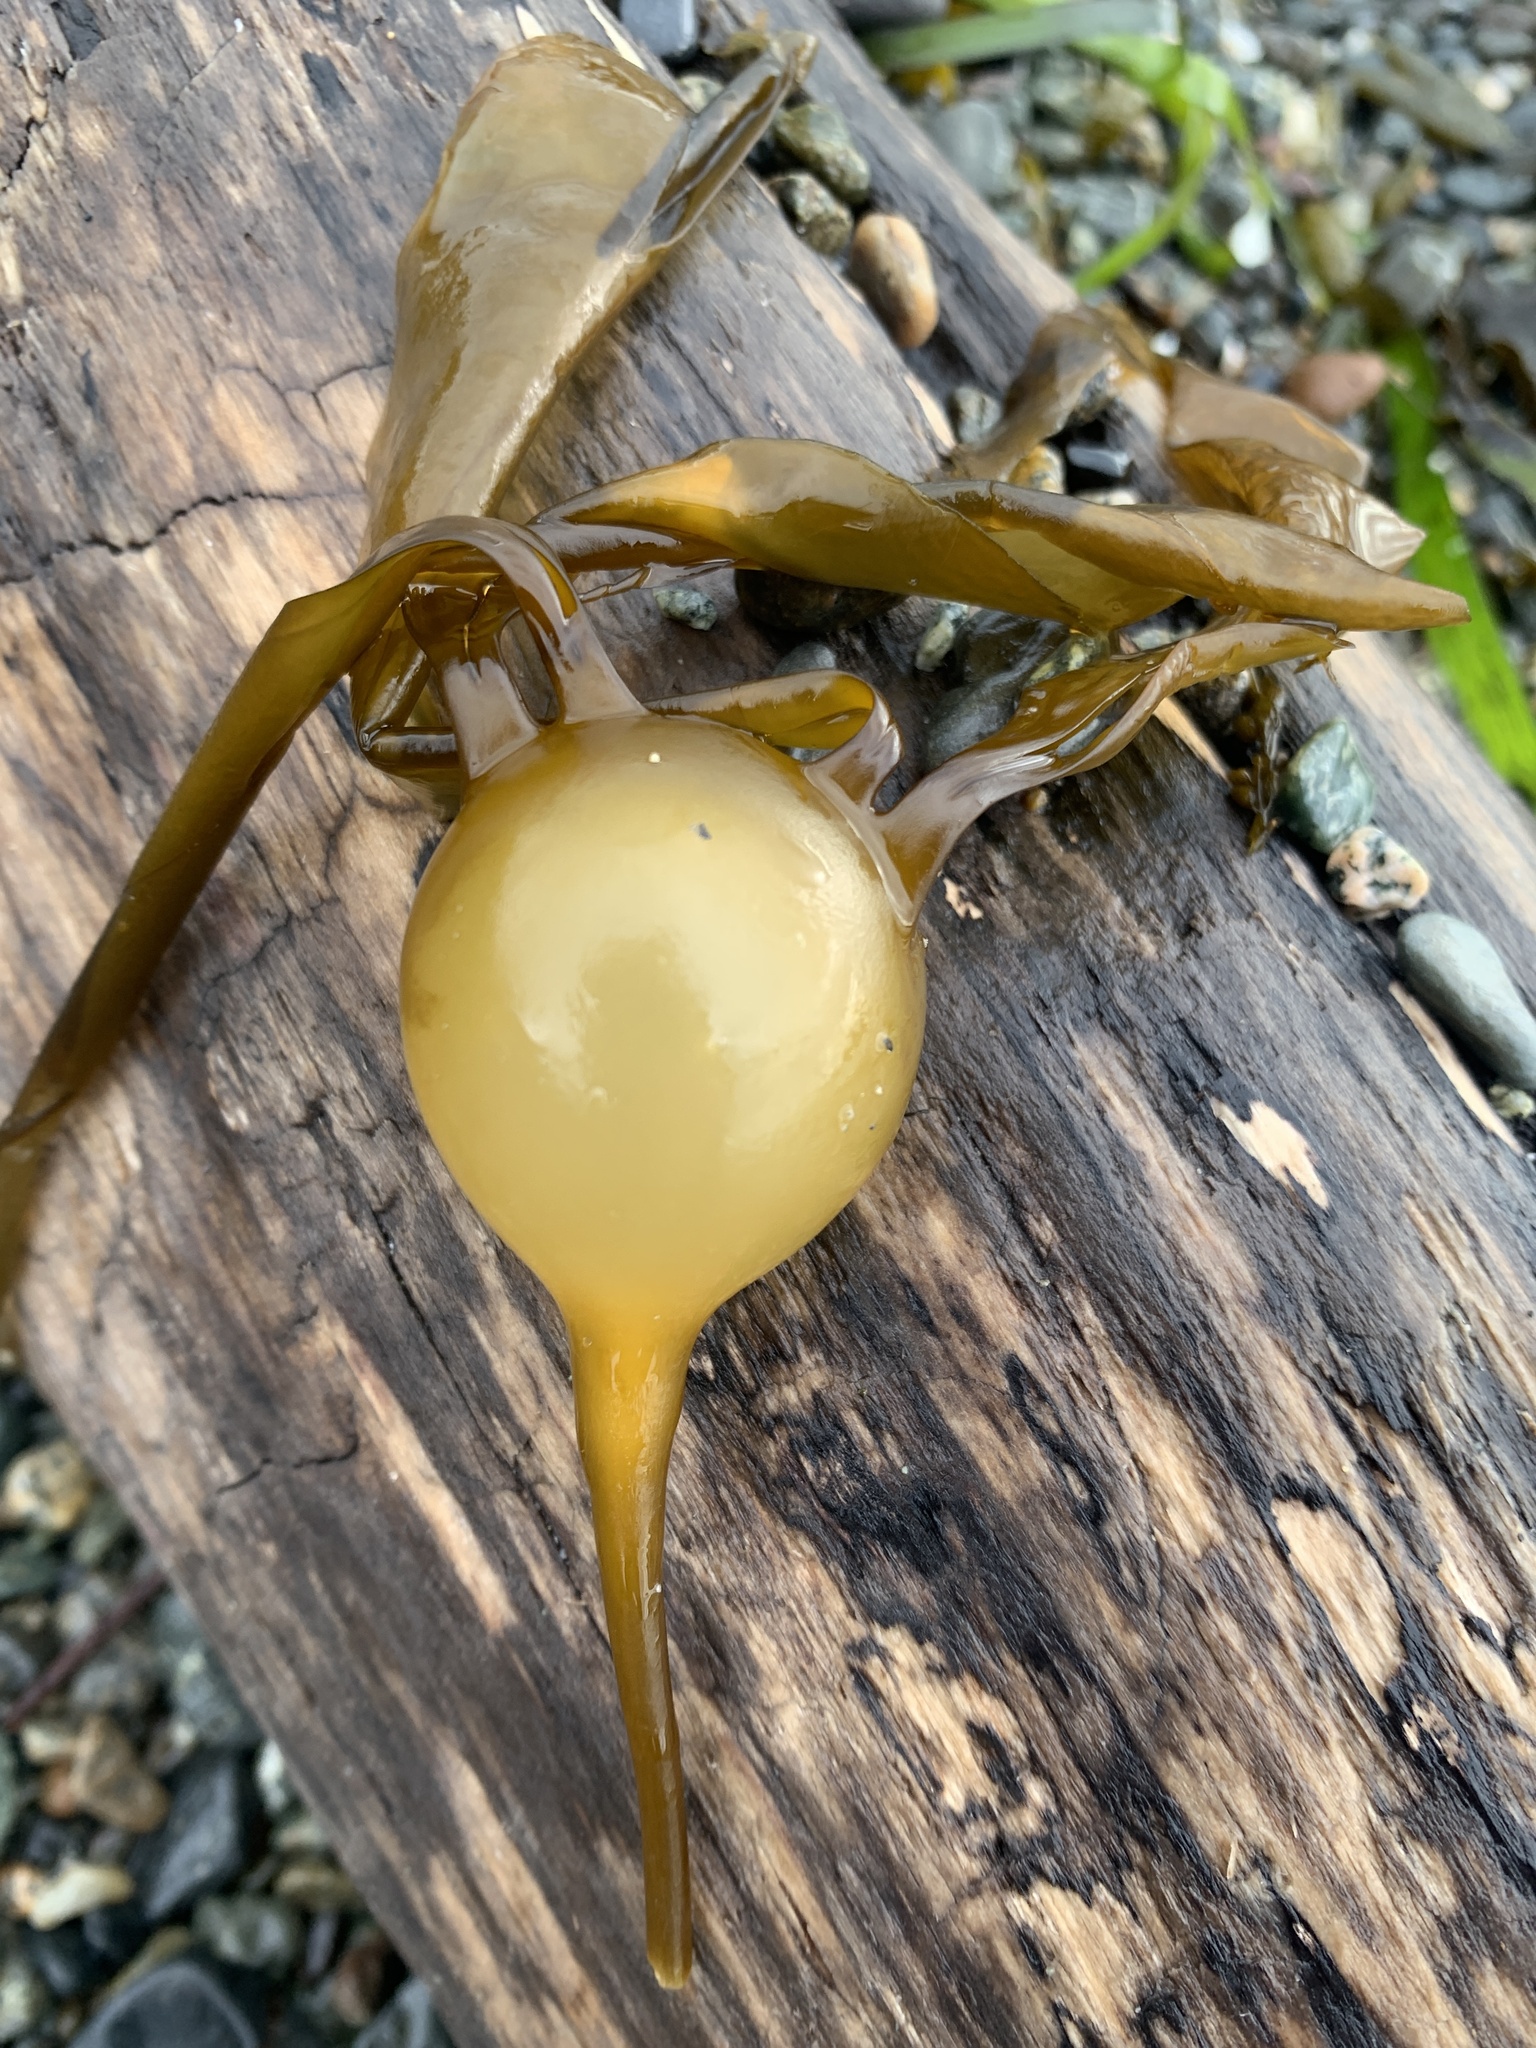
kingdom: Chromista
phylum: Ochrophyta
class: Phaeophyceae
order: Laminariales
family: Laminariaceae
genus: Nereocystis
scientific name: Nereocystis luetkeana
